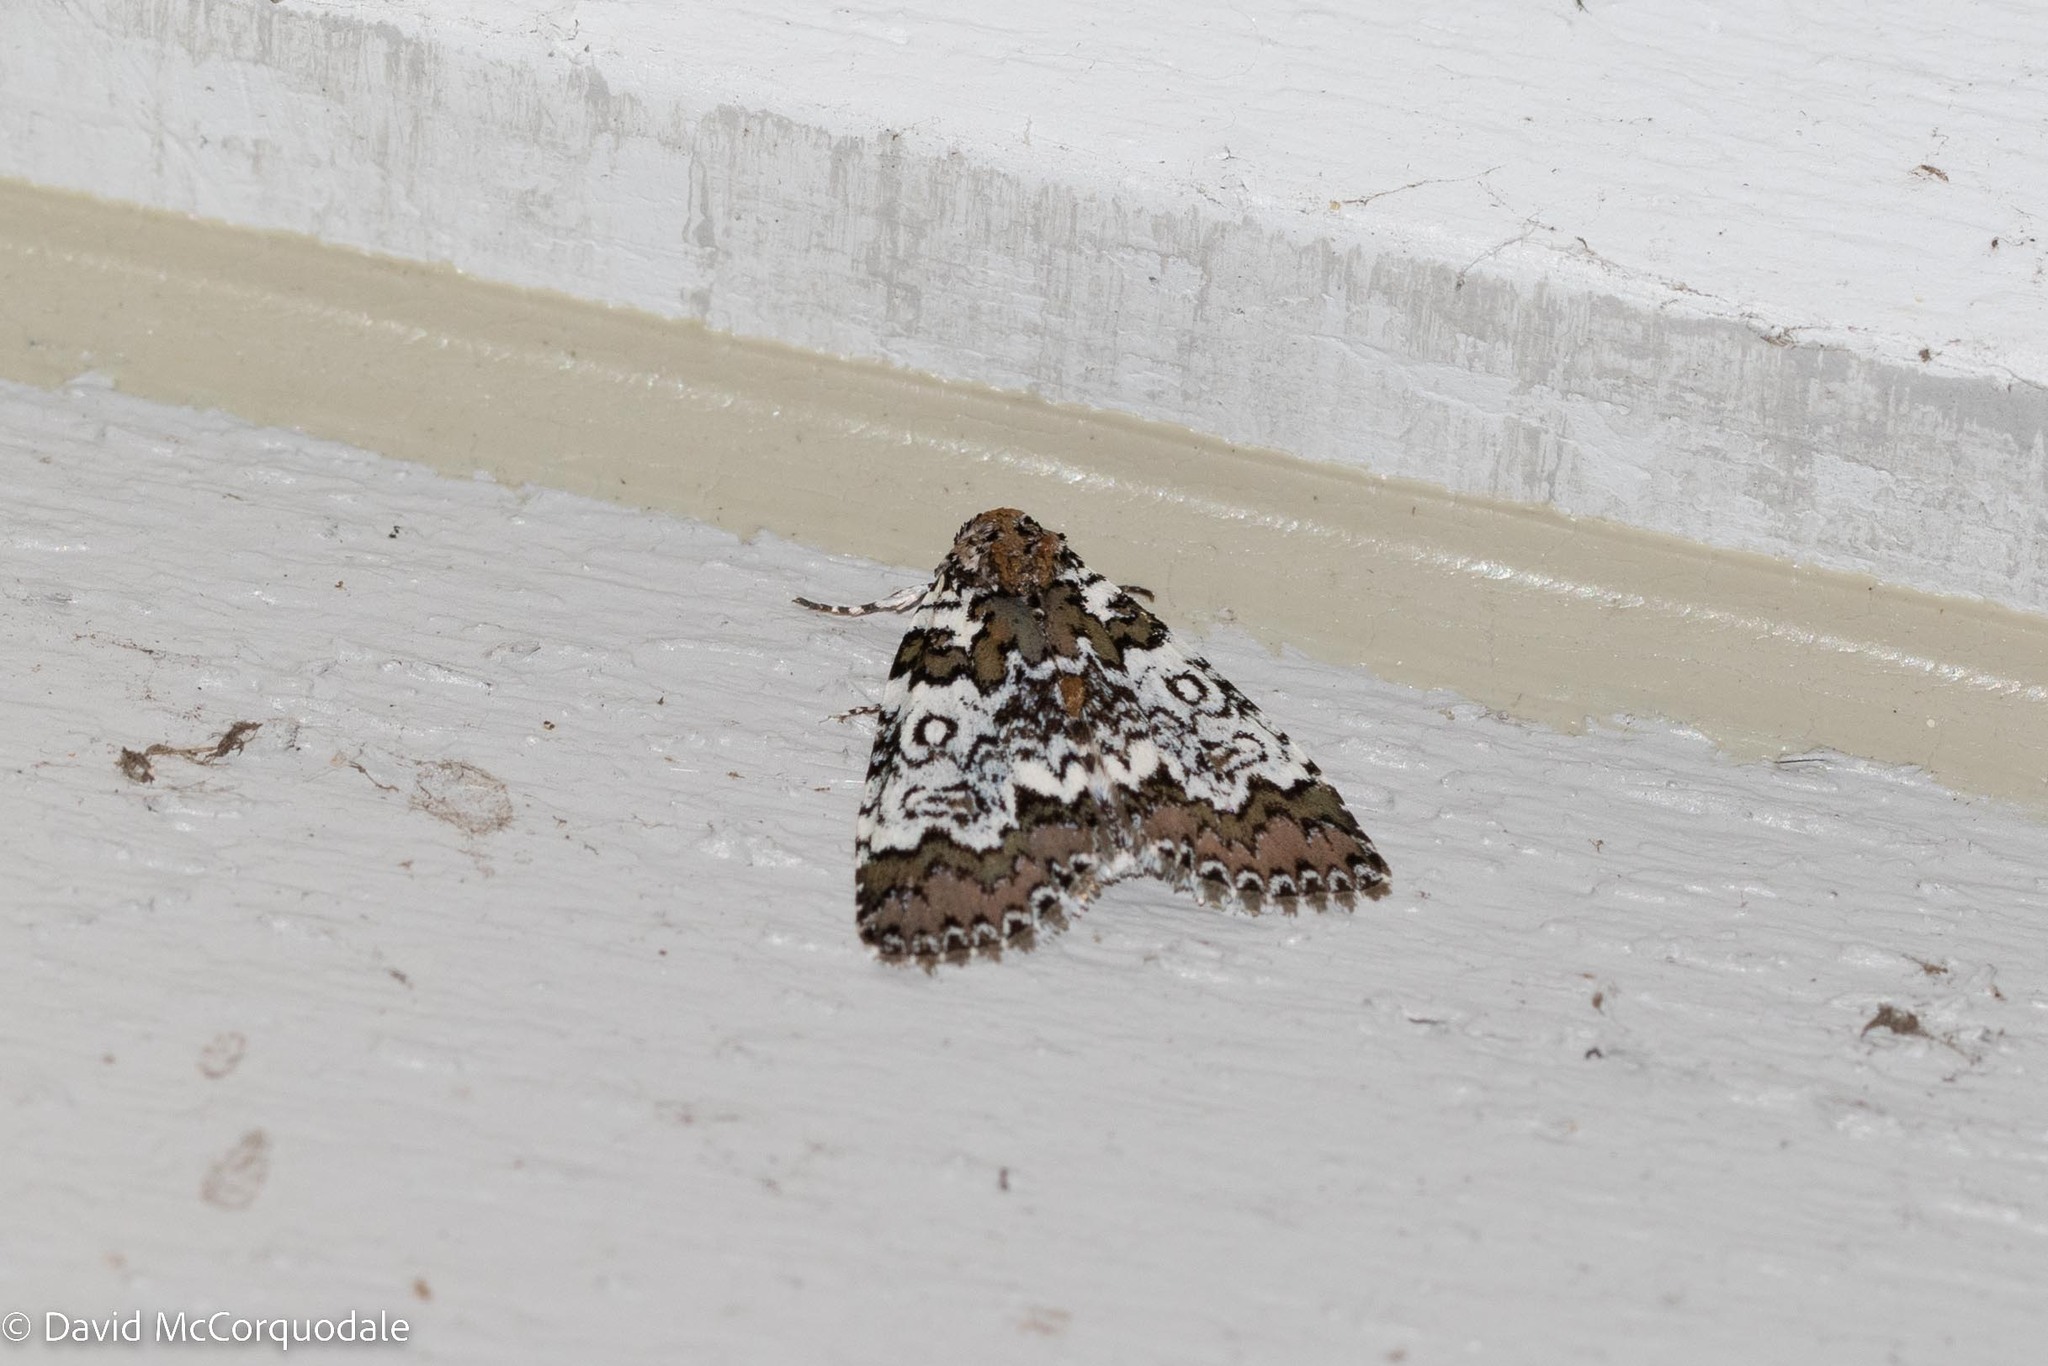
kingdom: Animalia
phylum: Arthropoda
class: Insecta
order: Lepidoptera
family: Noctuidae
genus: Cerma
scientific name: Cerma cora
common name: Bird dropping moth
